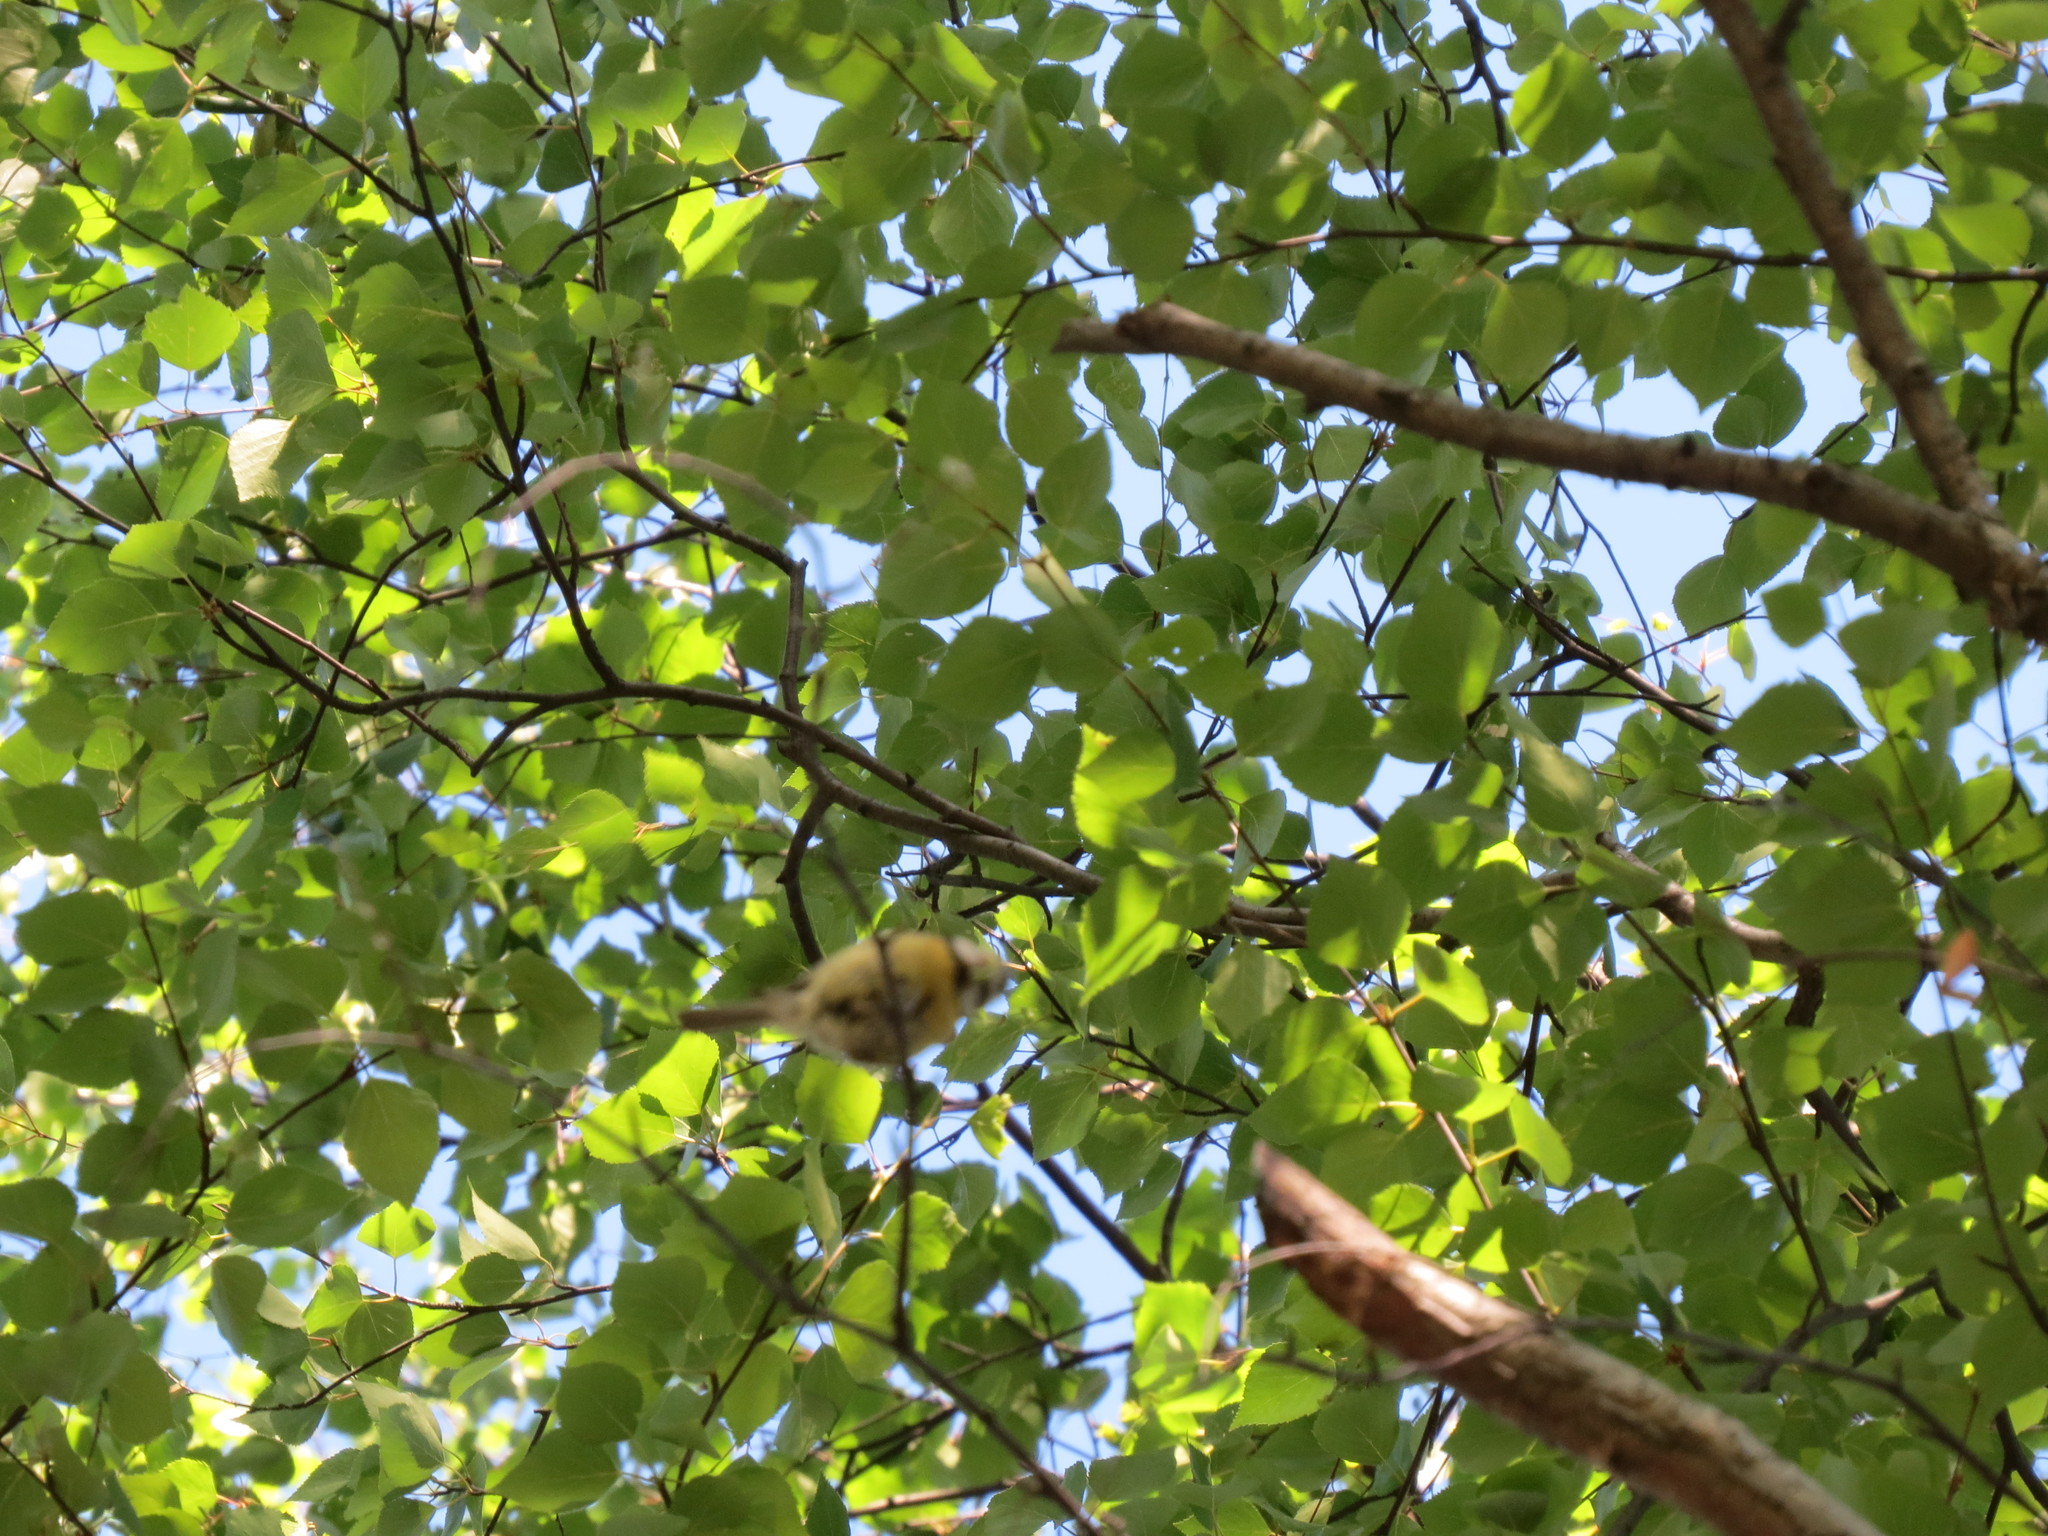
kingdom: Animalia
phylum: Chordata
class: Aves
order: Passeriformes
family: Paridae
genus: Cyanistes
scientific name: Cyanistes caeruleus
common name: Eurasian blue tit
